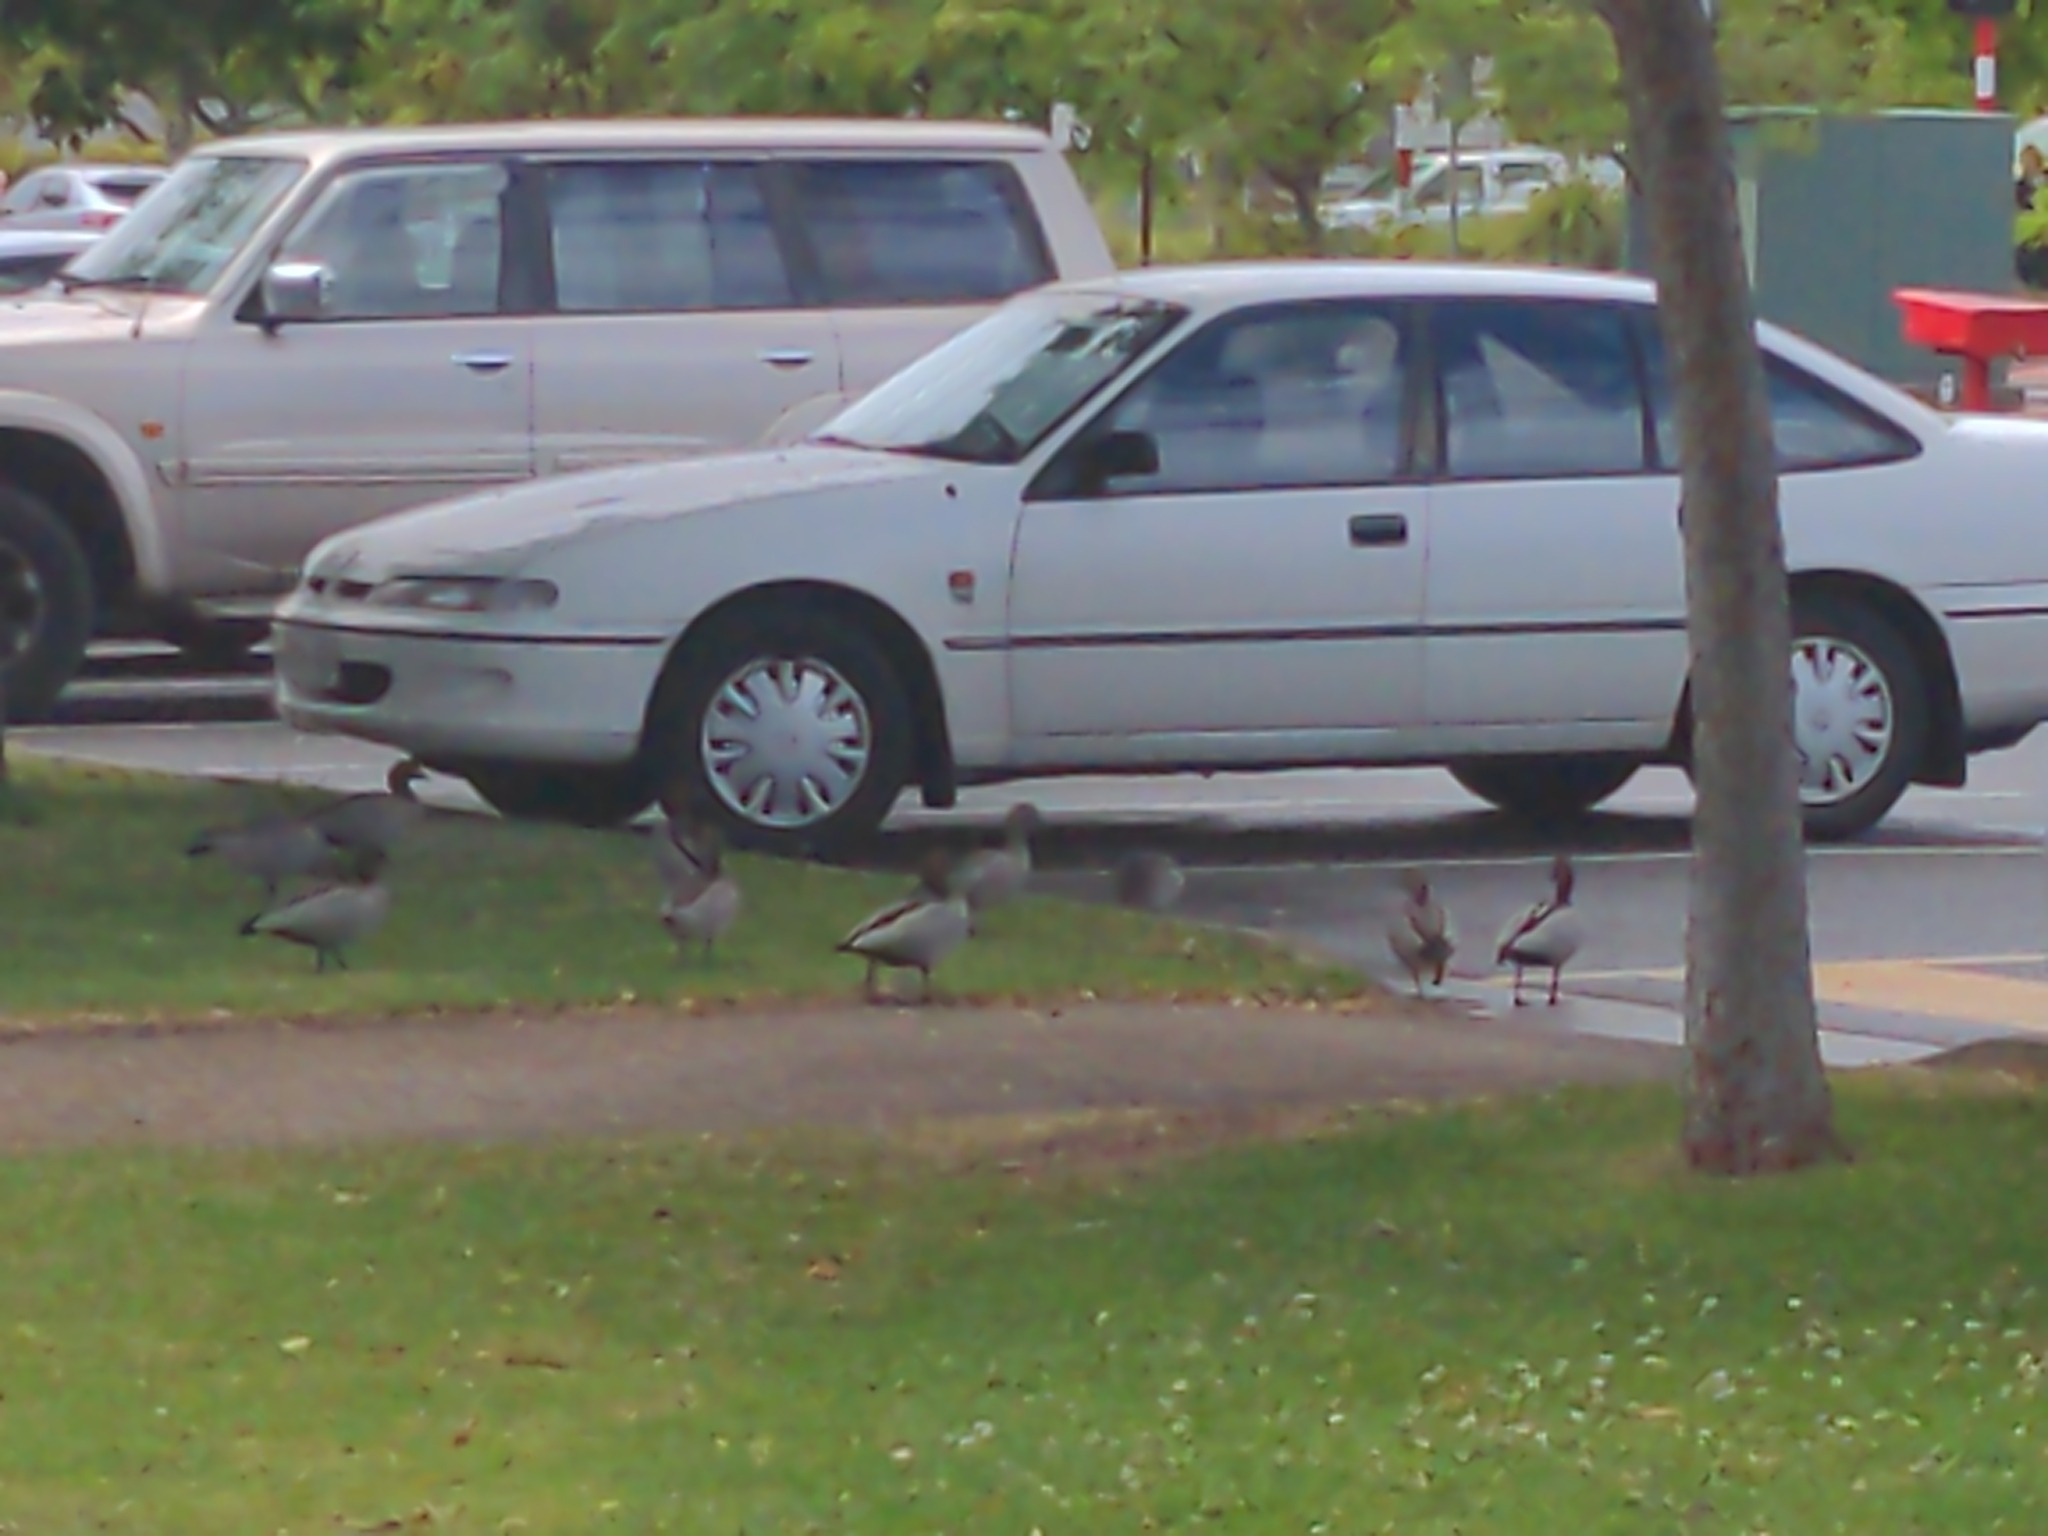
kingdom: Animalia
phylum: Chordata
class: Aves
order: Anseriformes
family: Anatidae
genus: Chenonetta
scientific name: Chenonetta jubata
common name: Maned duck
